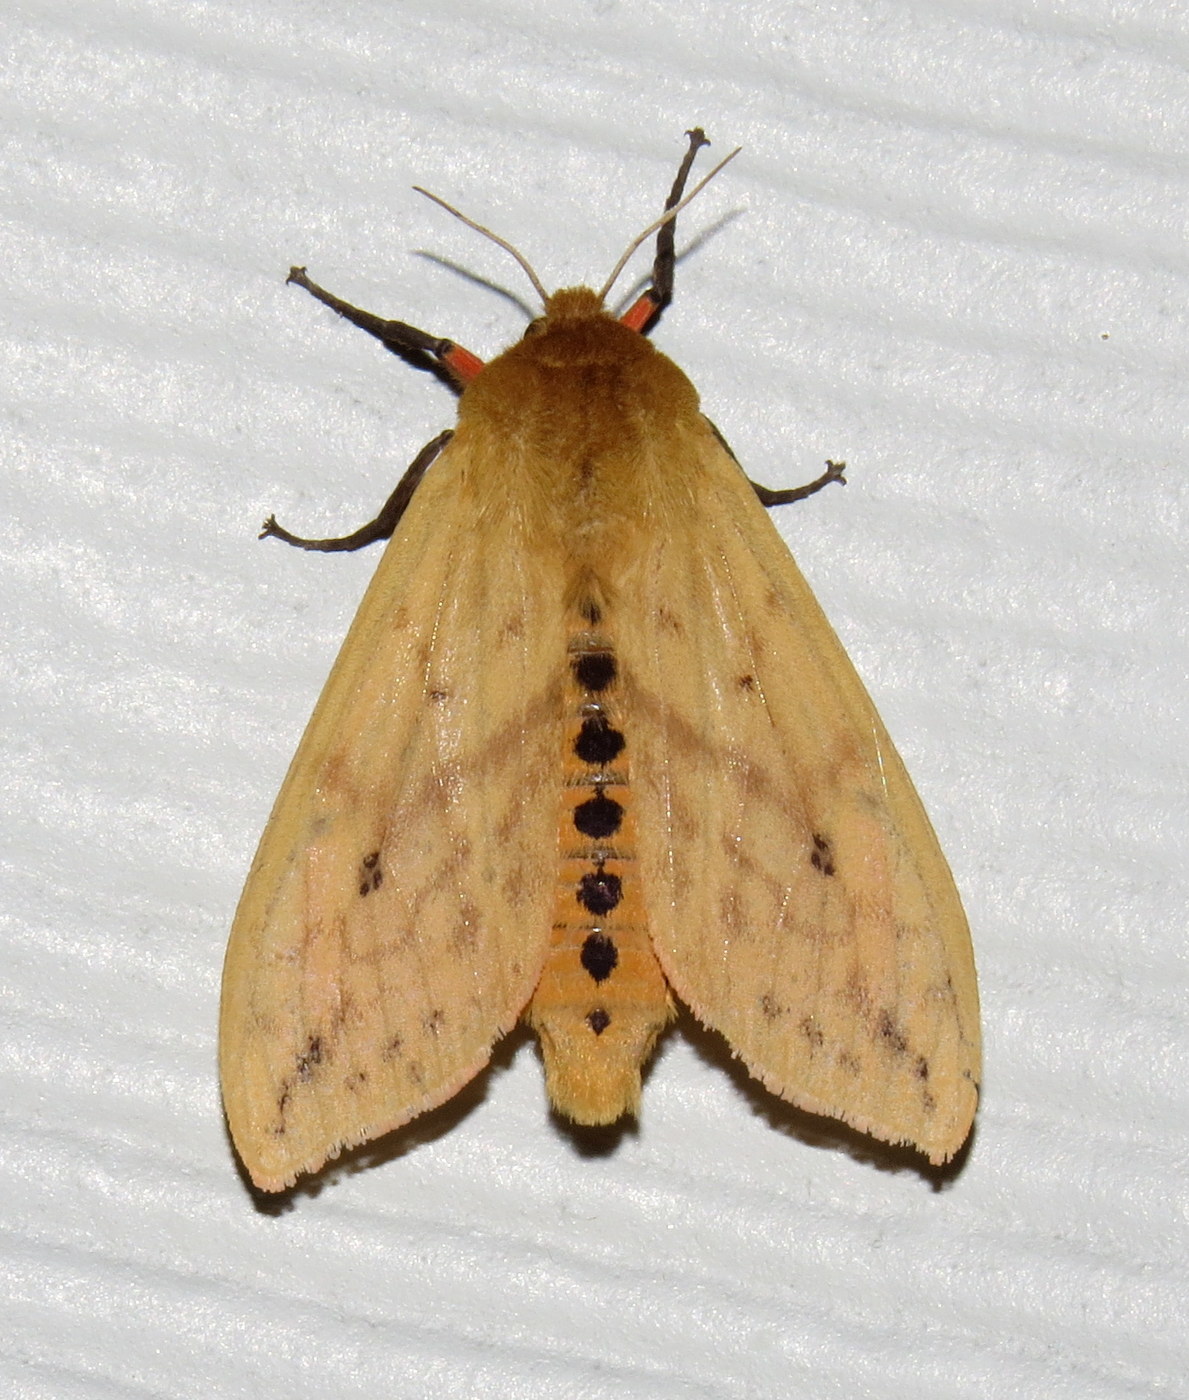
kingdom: Animalia
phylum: Arthropoda
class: Insecta
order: Lepidoptera
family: Erebidae
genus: Pyrrharctia
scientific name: Pyrrharctia isabella
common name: Isabella tiger moth
